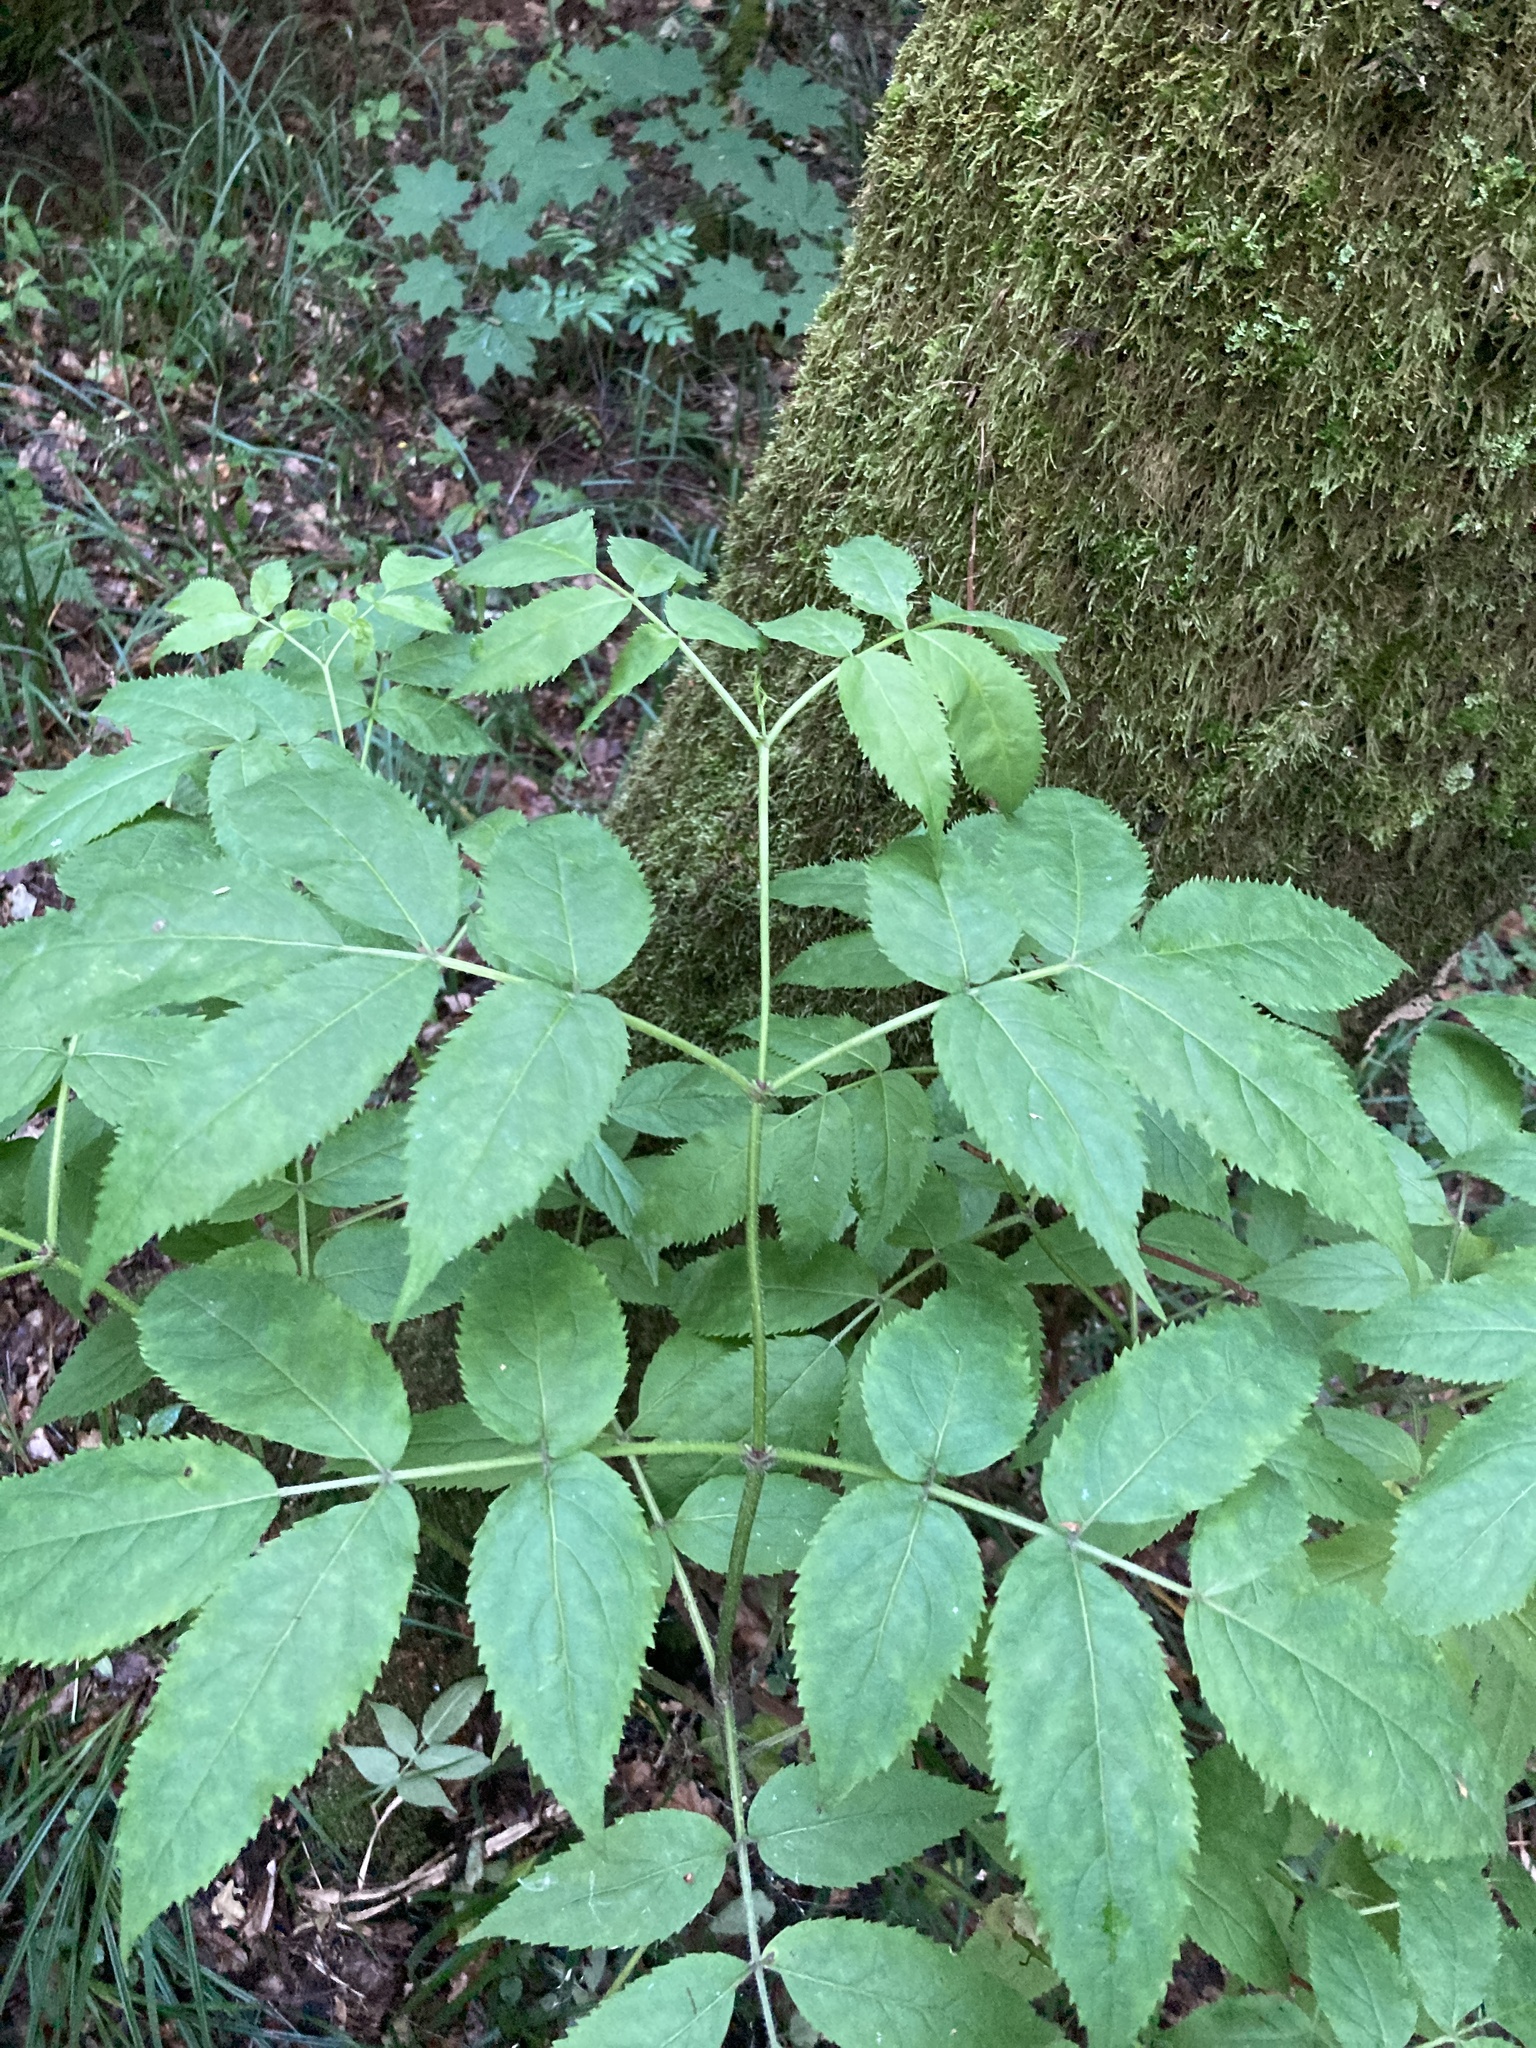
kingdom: Plantae
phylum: Tracheophyta
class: Magnoliopsida
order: Dipsacales
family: Viburnaceae
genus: Sambucus
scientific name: Sambucus racemosa
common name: Red-berried elder
